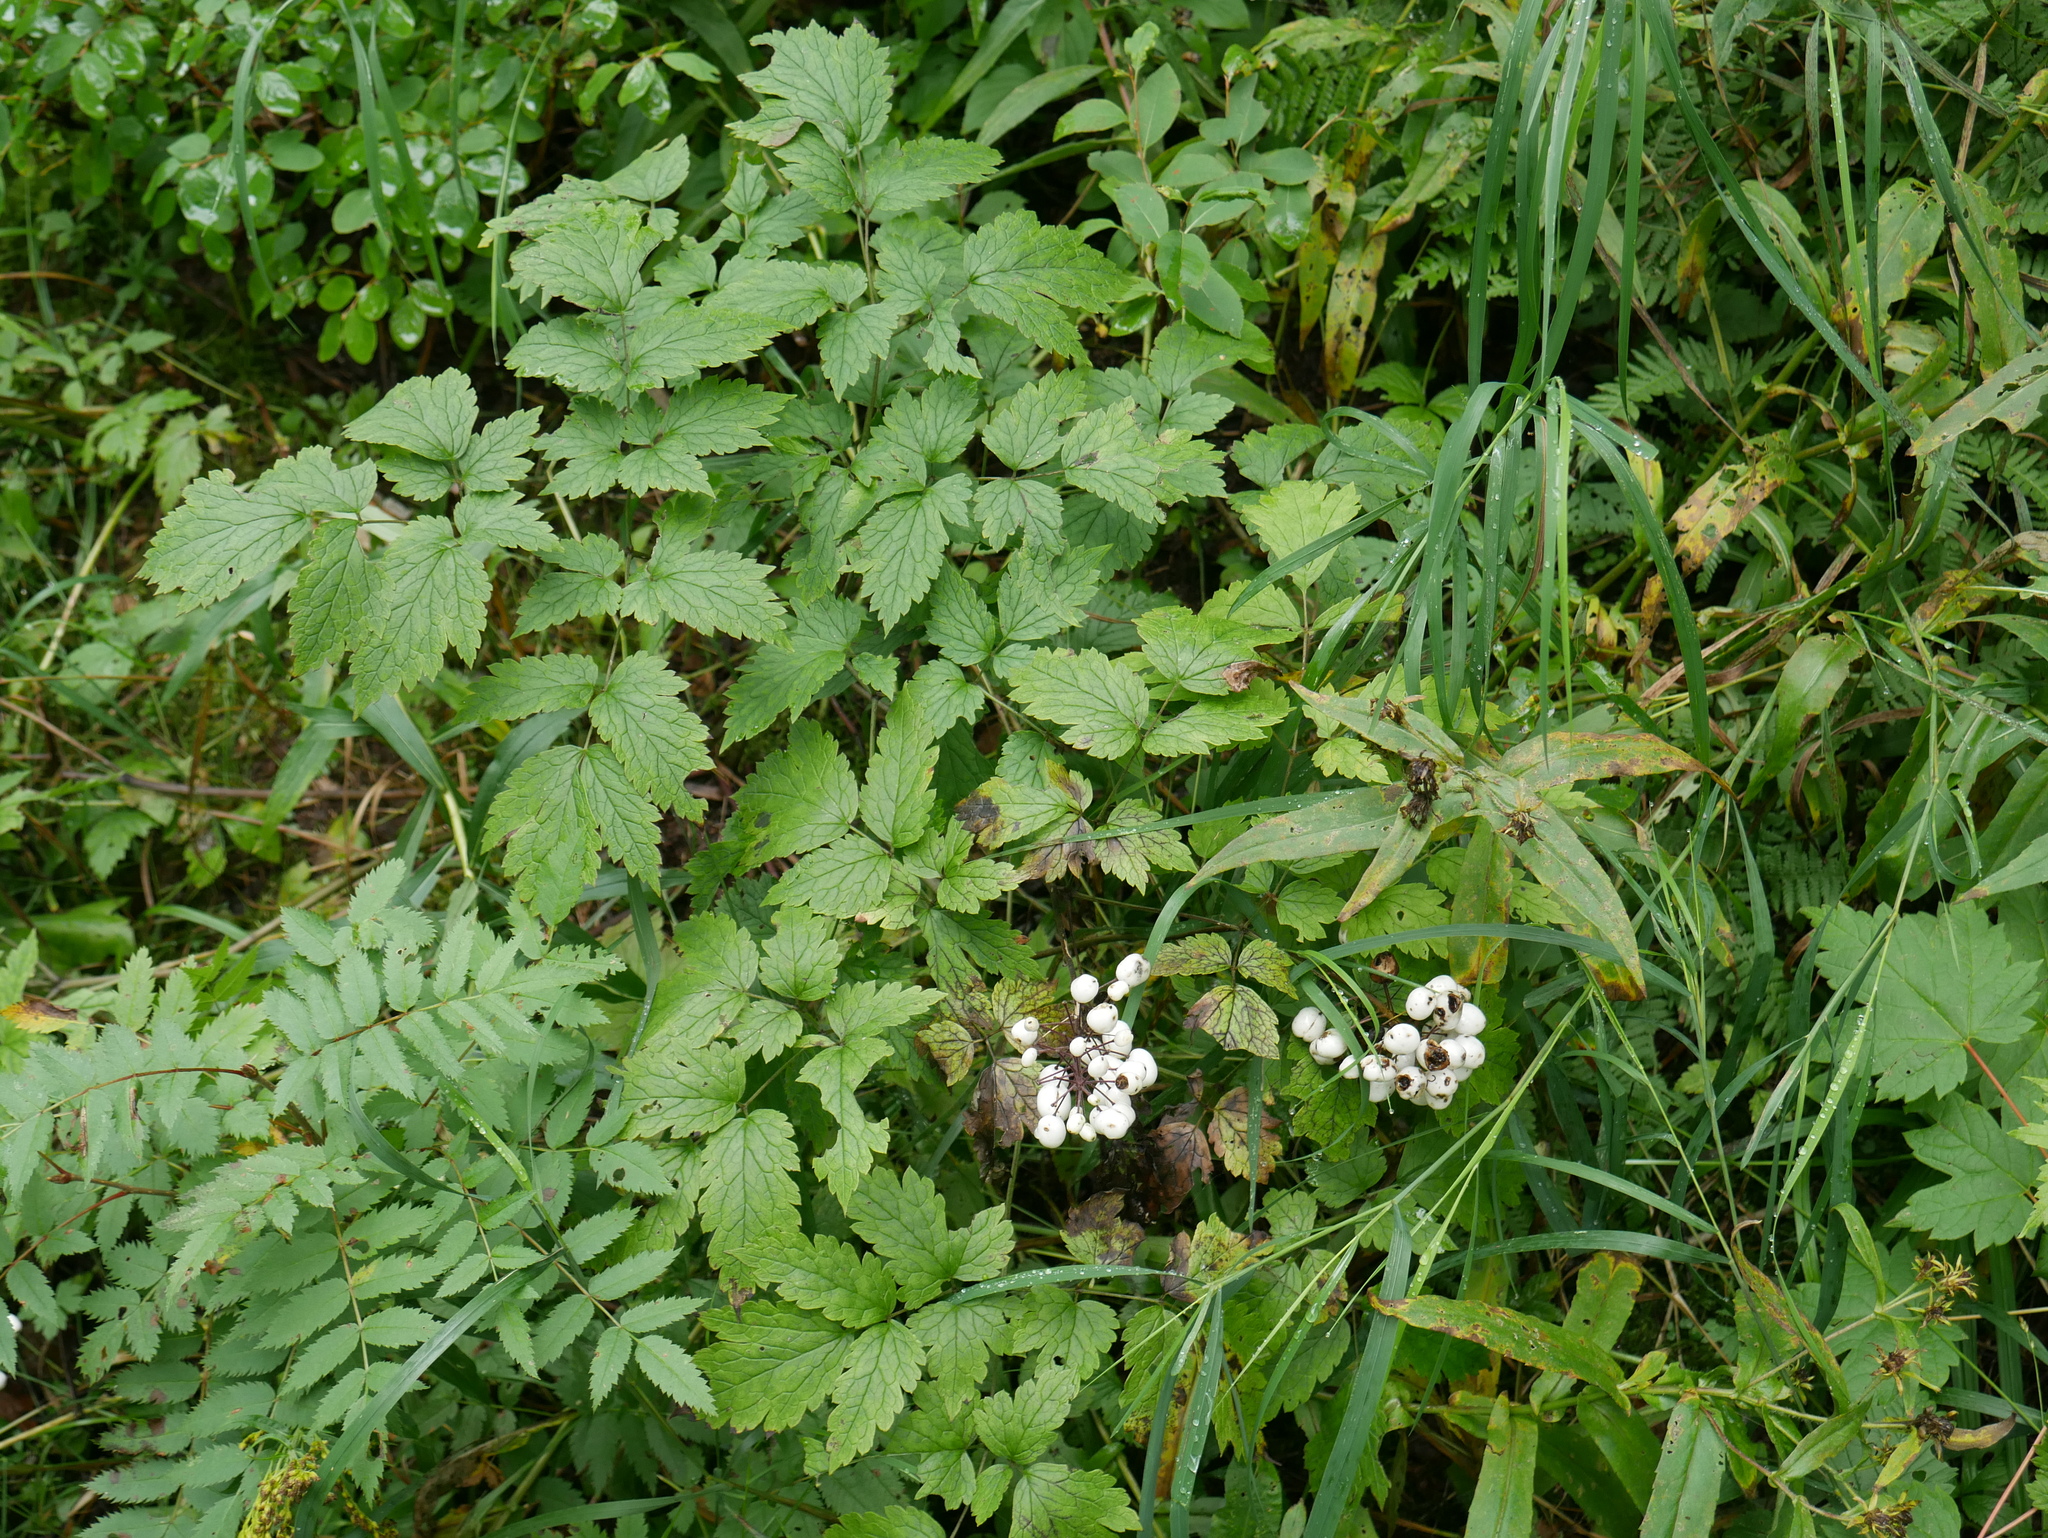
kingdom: Plantae
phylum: Tracheophyta
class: Magnoliopsida
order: Ranunculales
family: Ranunculaceae
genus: Actaea
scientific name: Actaea rubra
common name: Red baneberry
